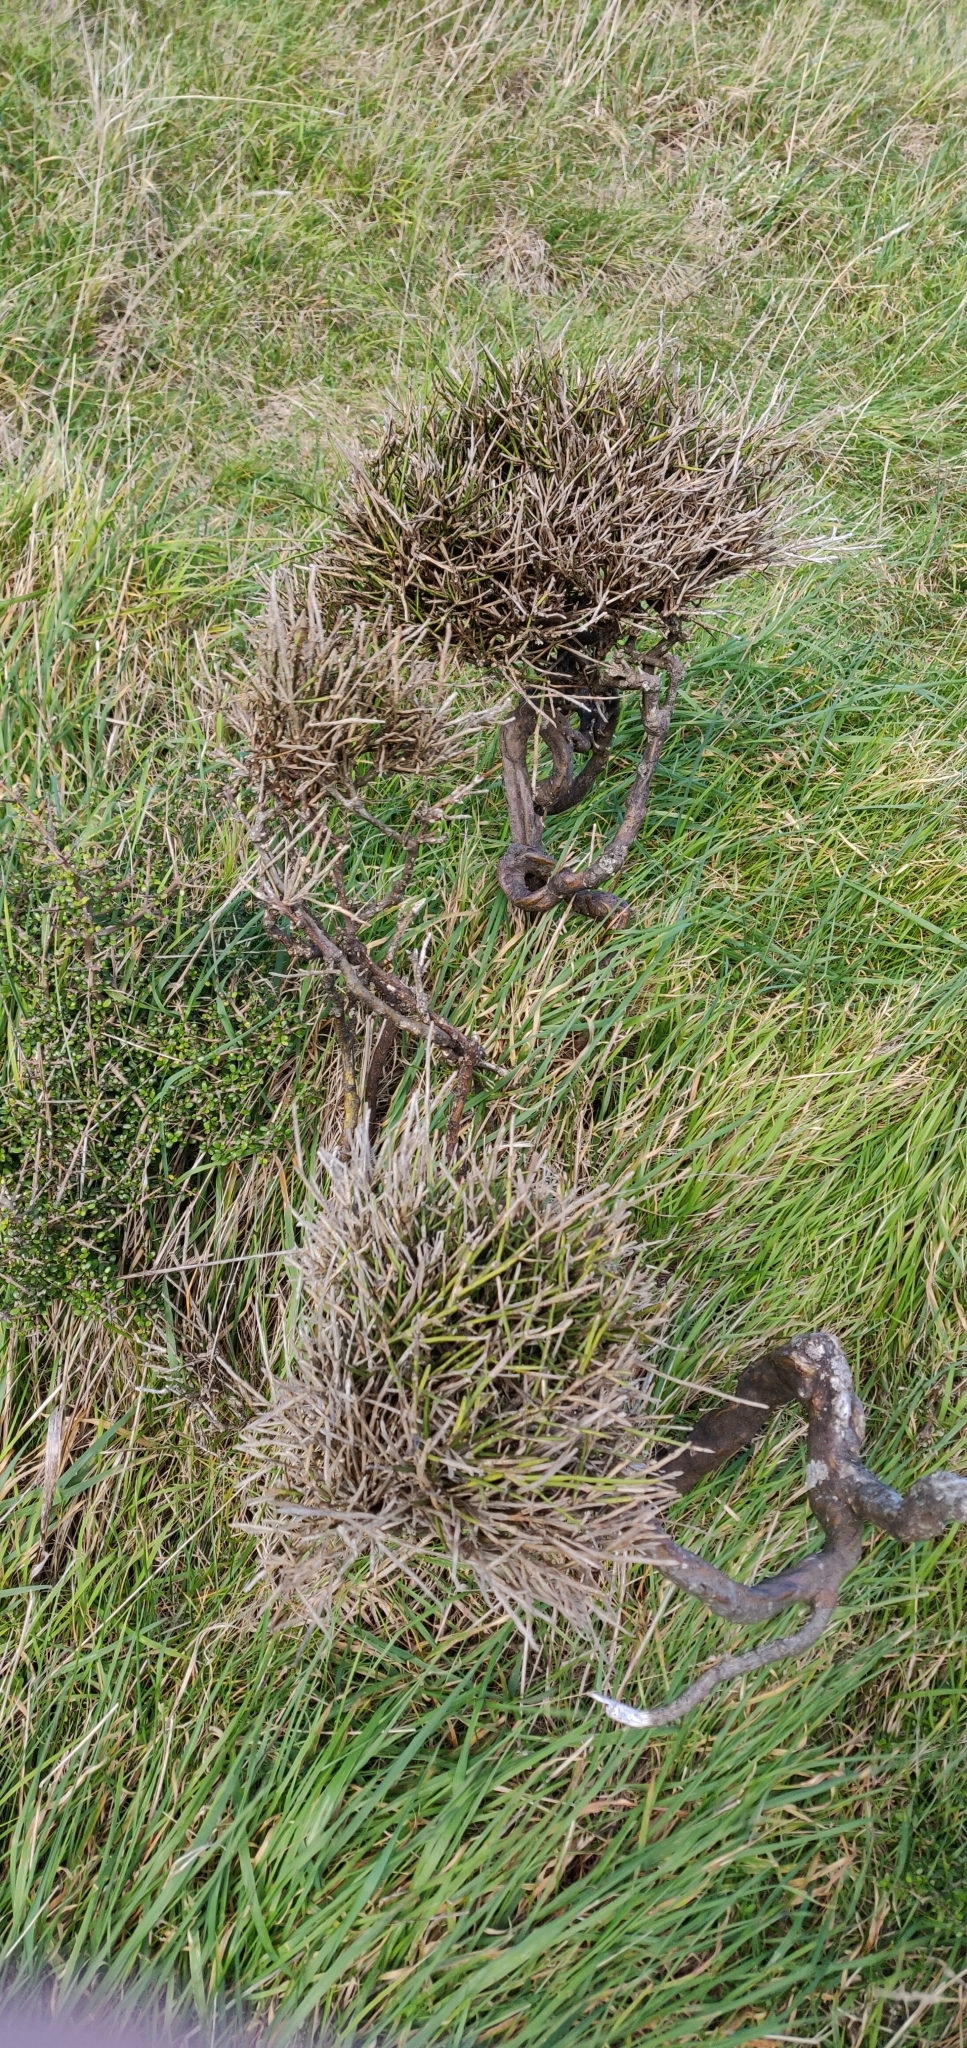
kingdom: Plantae
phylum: Tracheophyta
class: Magnoliopsida
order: Fabales
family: Fabaceae
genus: Carmichaelia
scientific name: Carmichaelia australis
